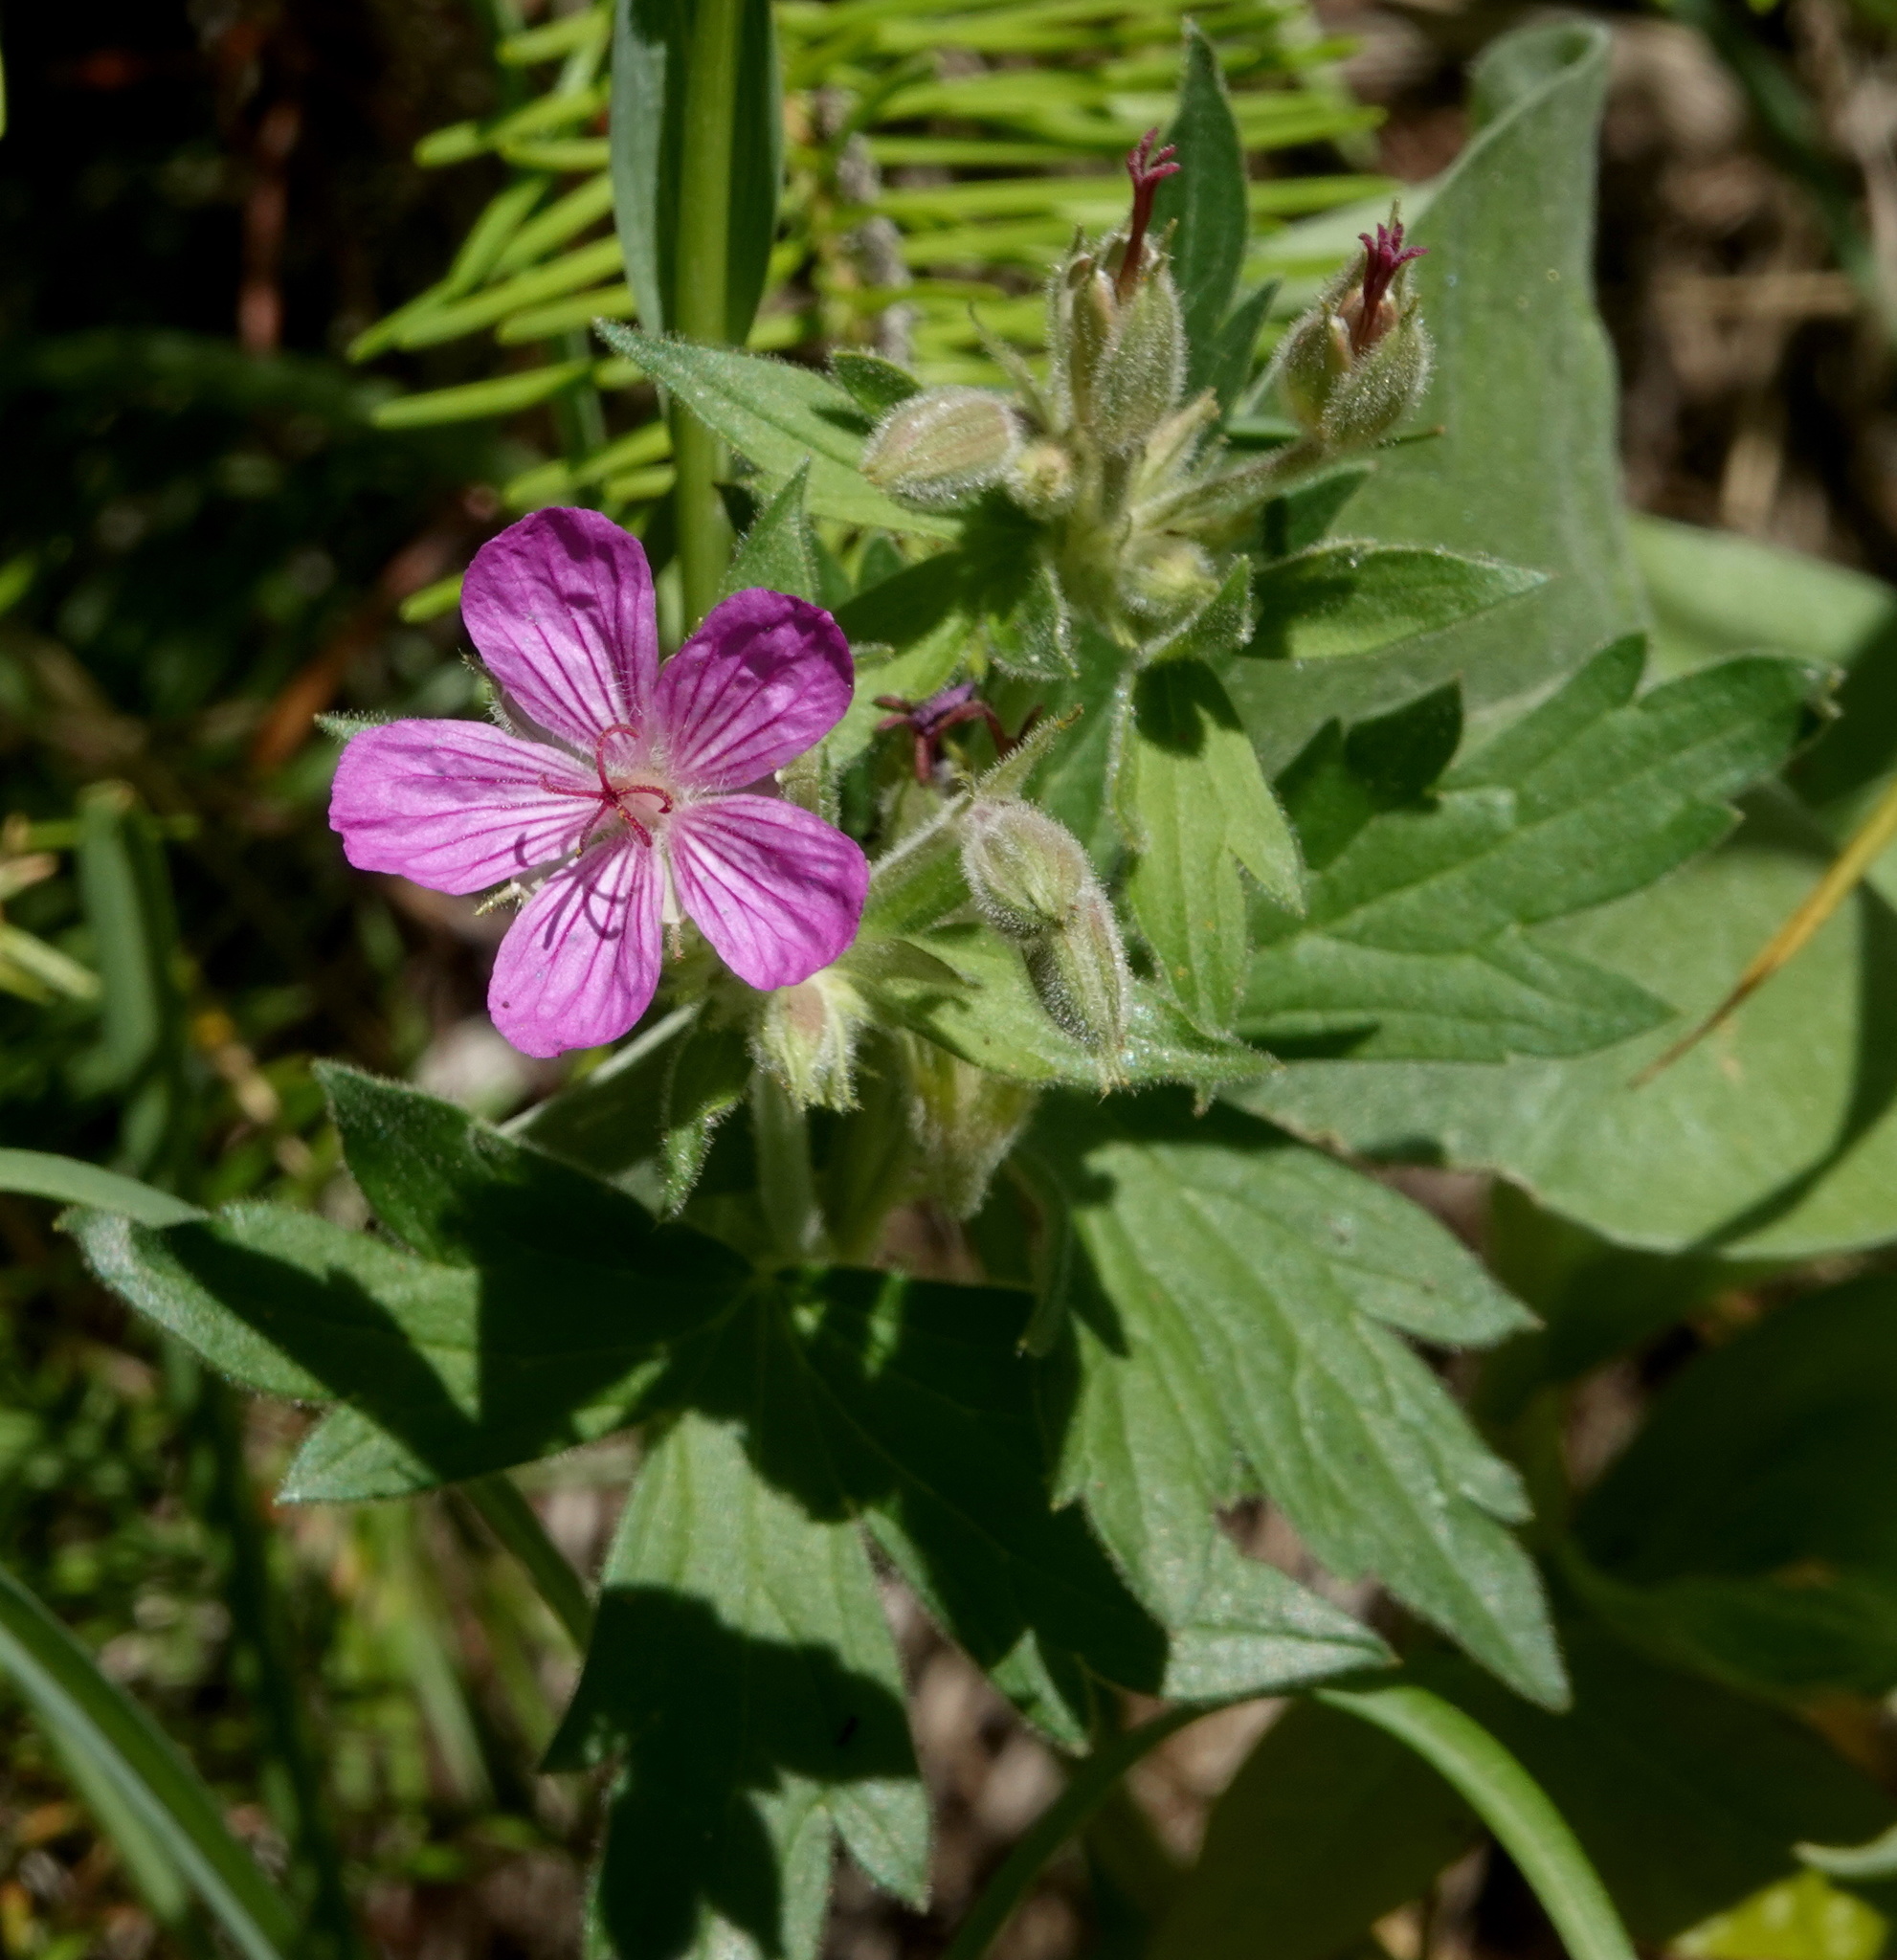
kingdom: Plantae
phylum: Tracheophyta
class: Magnoliopsida
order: Geraniales
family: Geraniaceae
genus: Geranium
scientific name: Geranium viscosissimum
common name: Purple geranium
